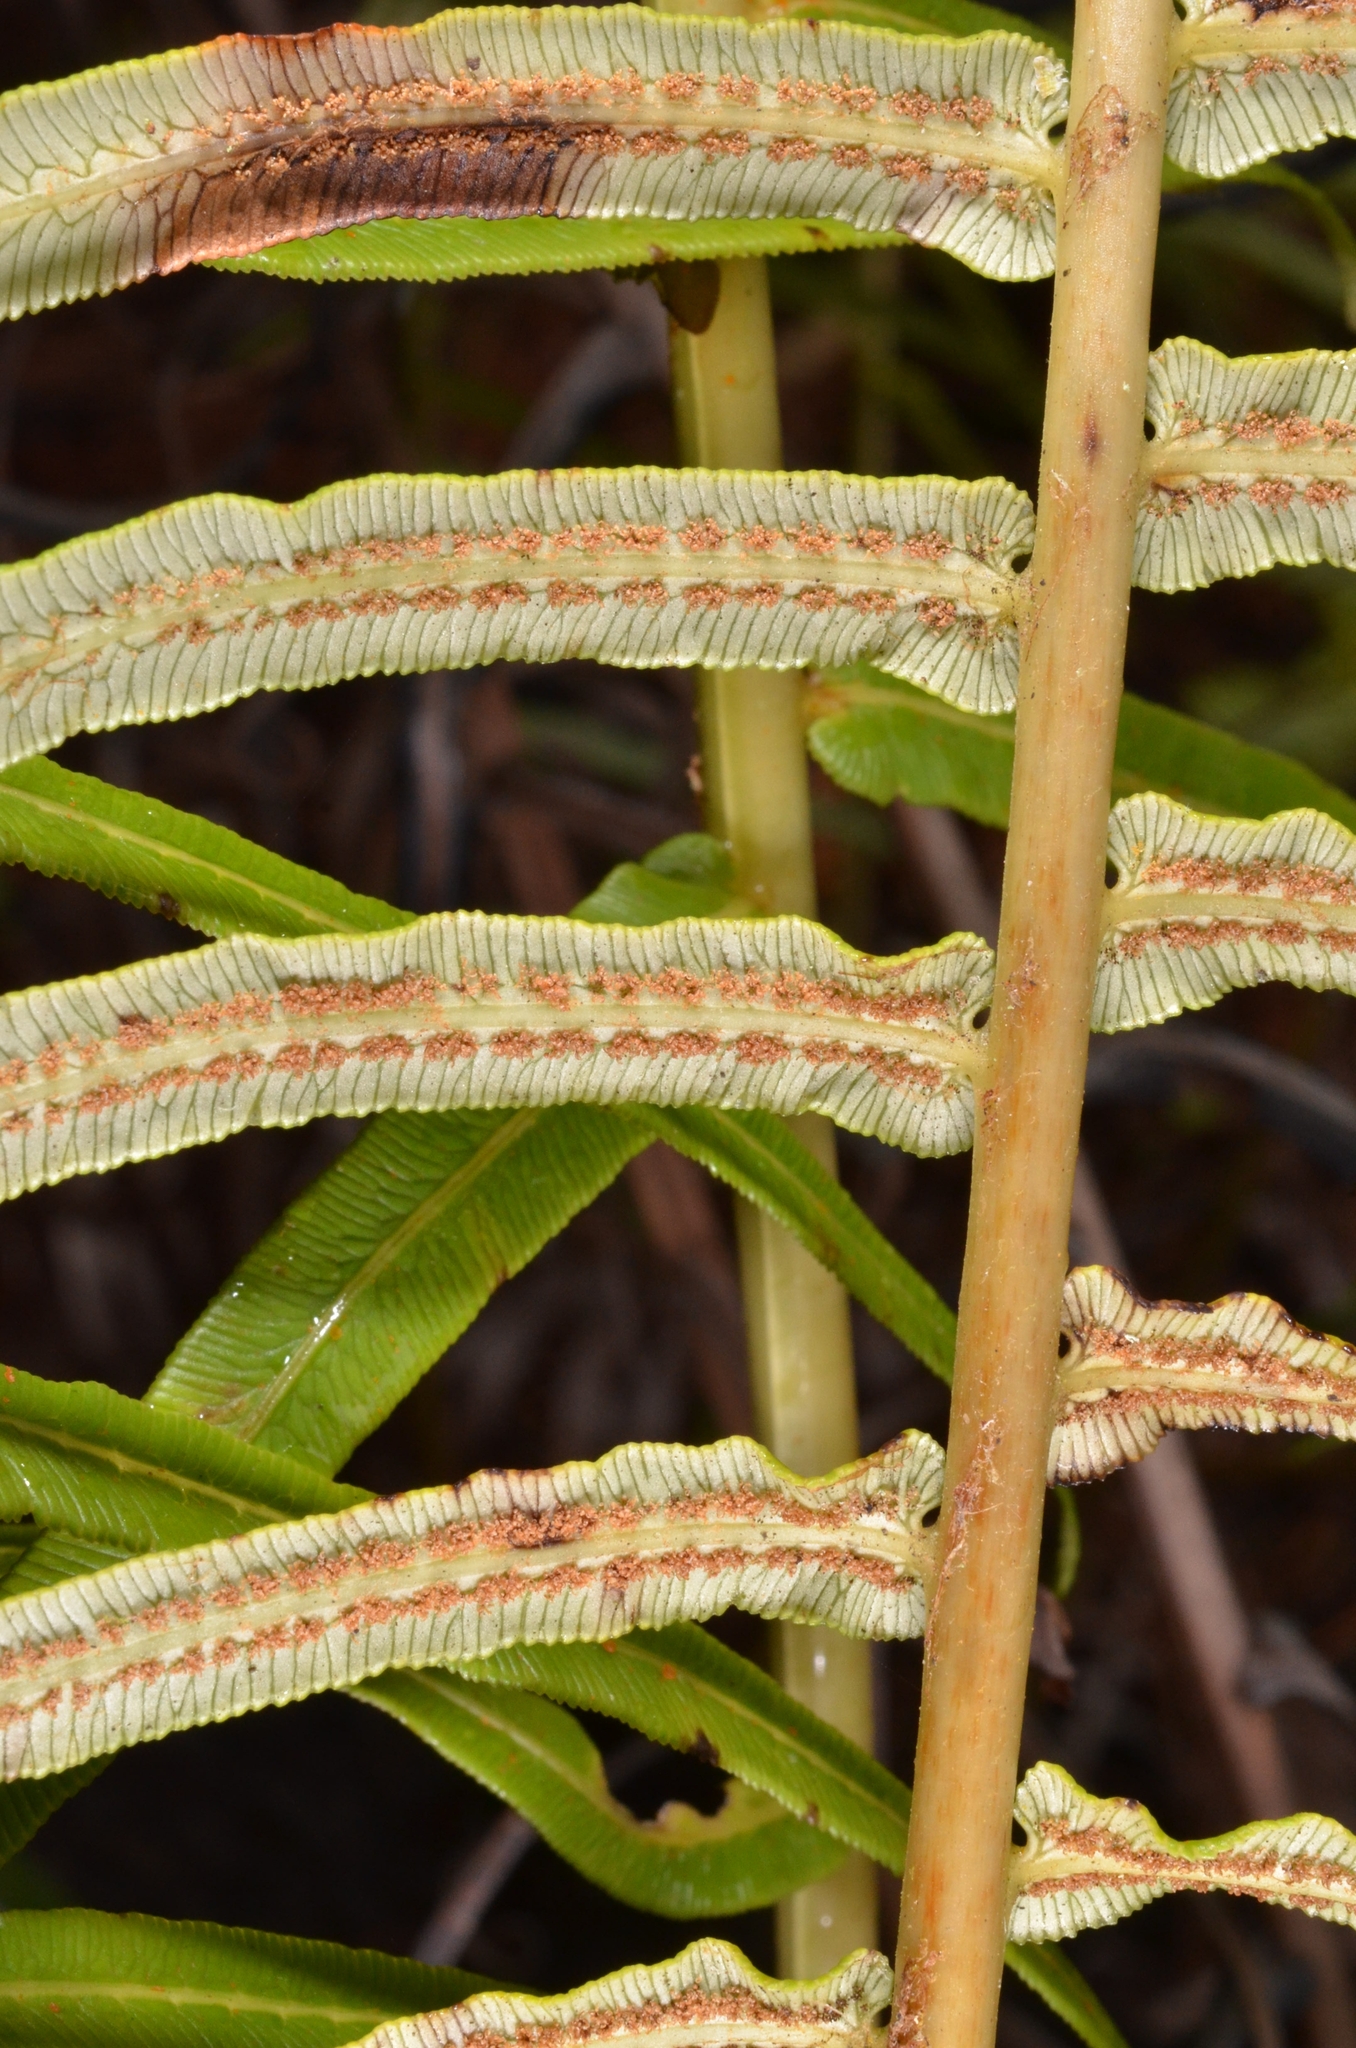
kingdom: Plantae
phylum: Tracheophyta
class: Polypodiopsida
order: Polypodiales
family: Blechnaceae
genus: Brainea
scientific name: Brainea insignis
